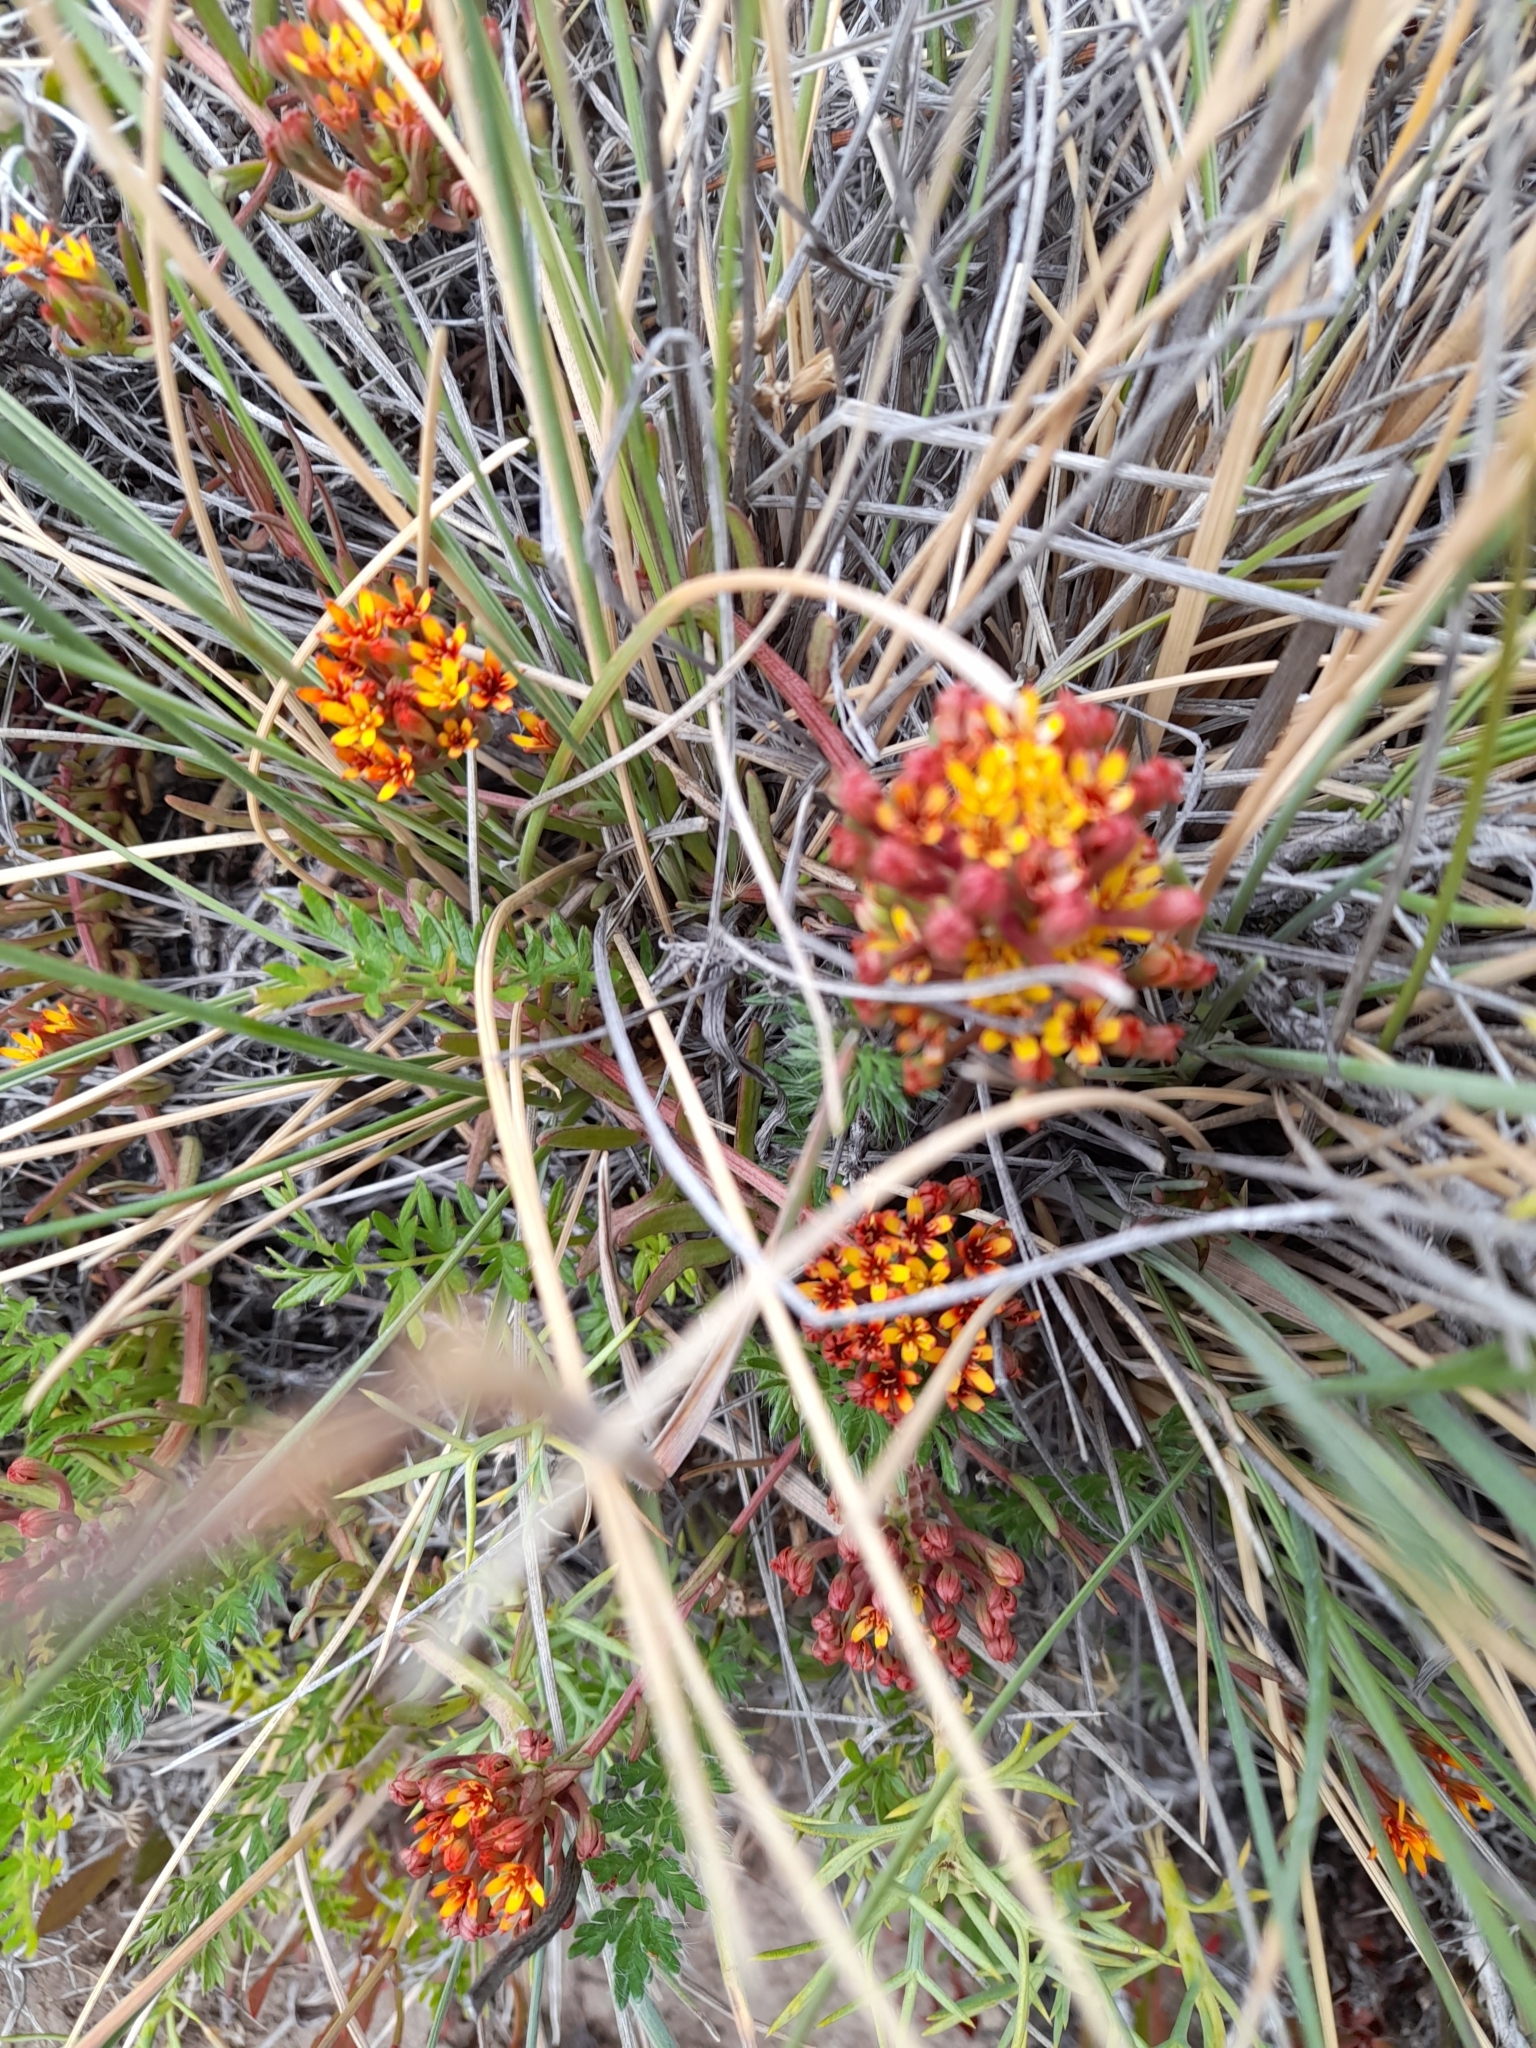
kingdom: Plantae
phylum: Tracheophyta
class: Magnoliopsida
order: Santalales
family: Schoepfiaceae
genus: Quinchamalium
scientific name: Quinchamalium chilense
